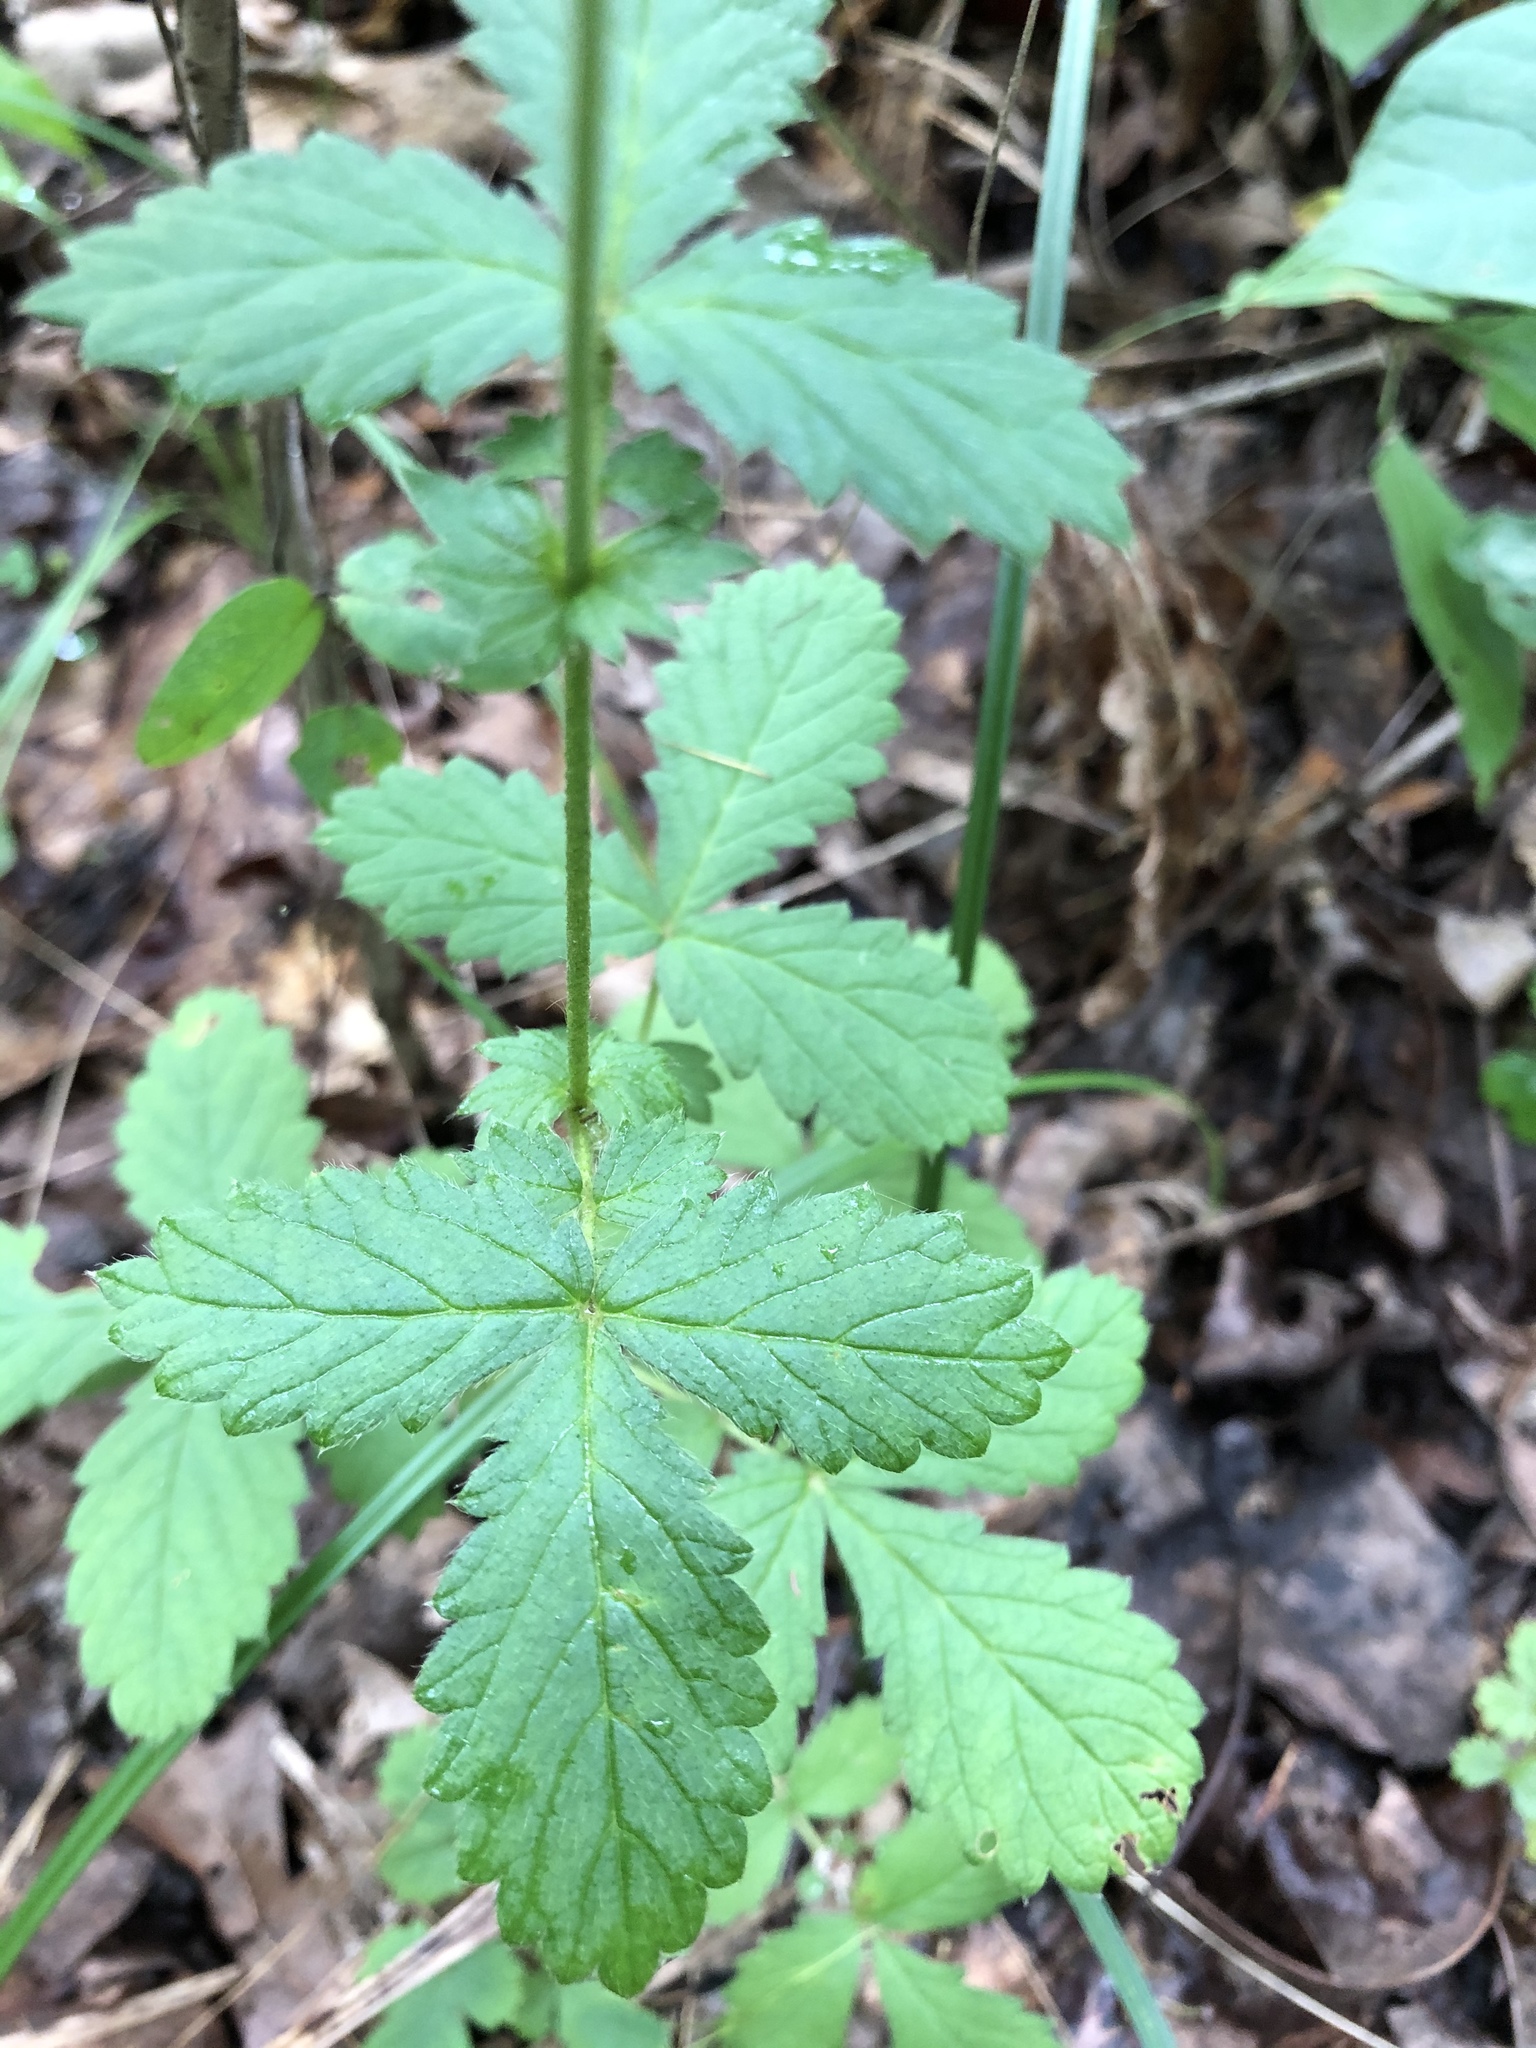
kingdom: Plantae
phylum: Tracheophyta
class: Magnoliopsida
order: Rosales
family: Rosaceae
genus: Agrimonia
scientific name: Agrimonia microcarpa
